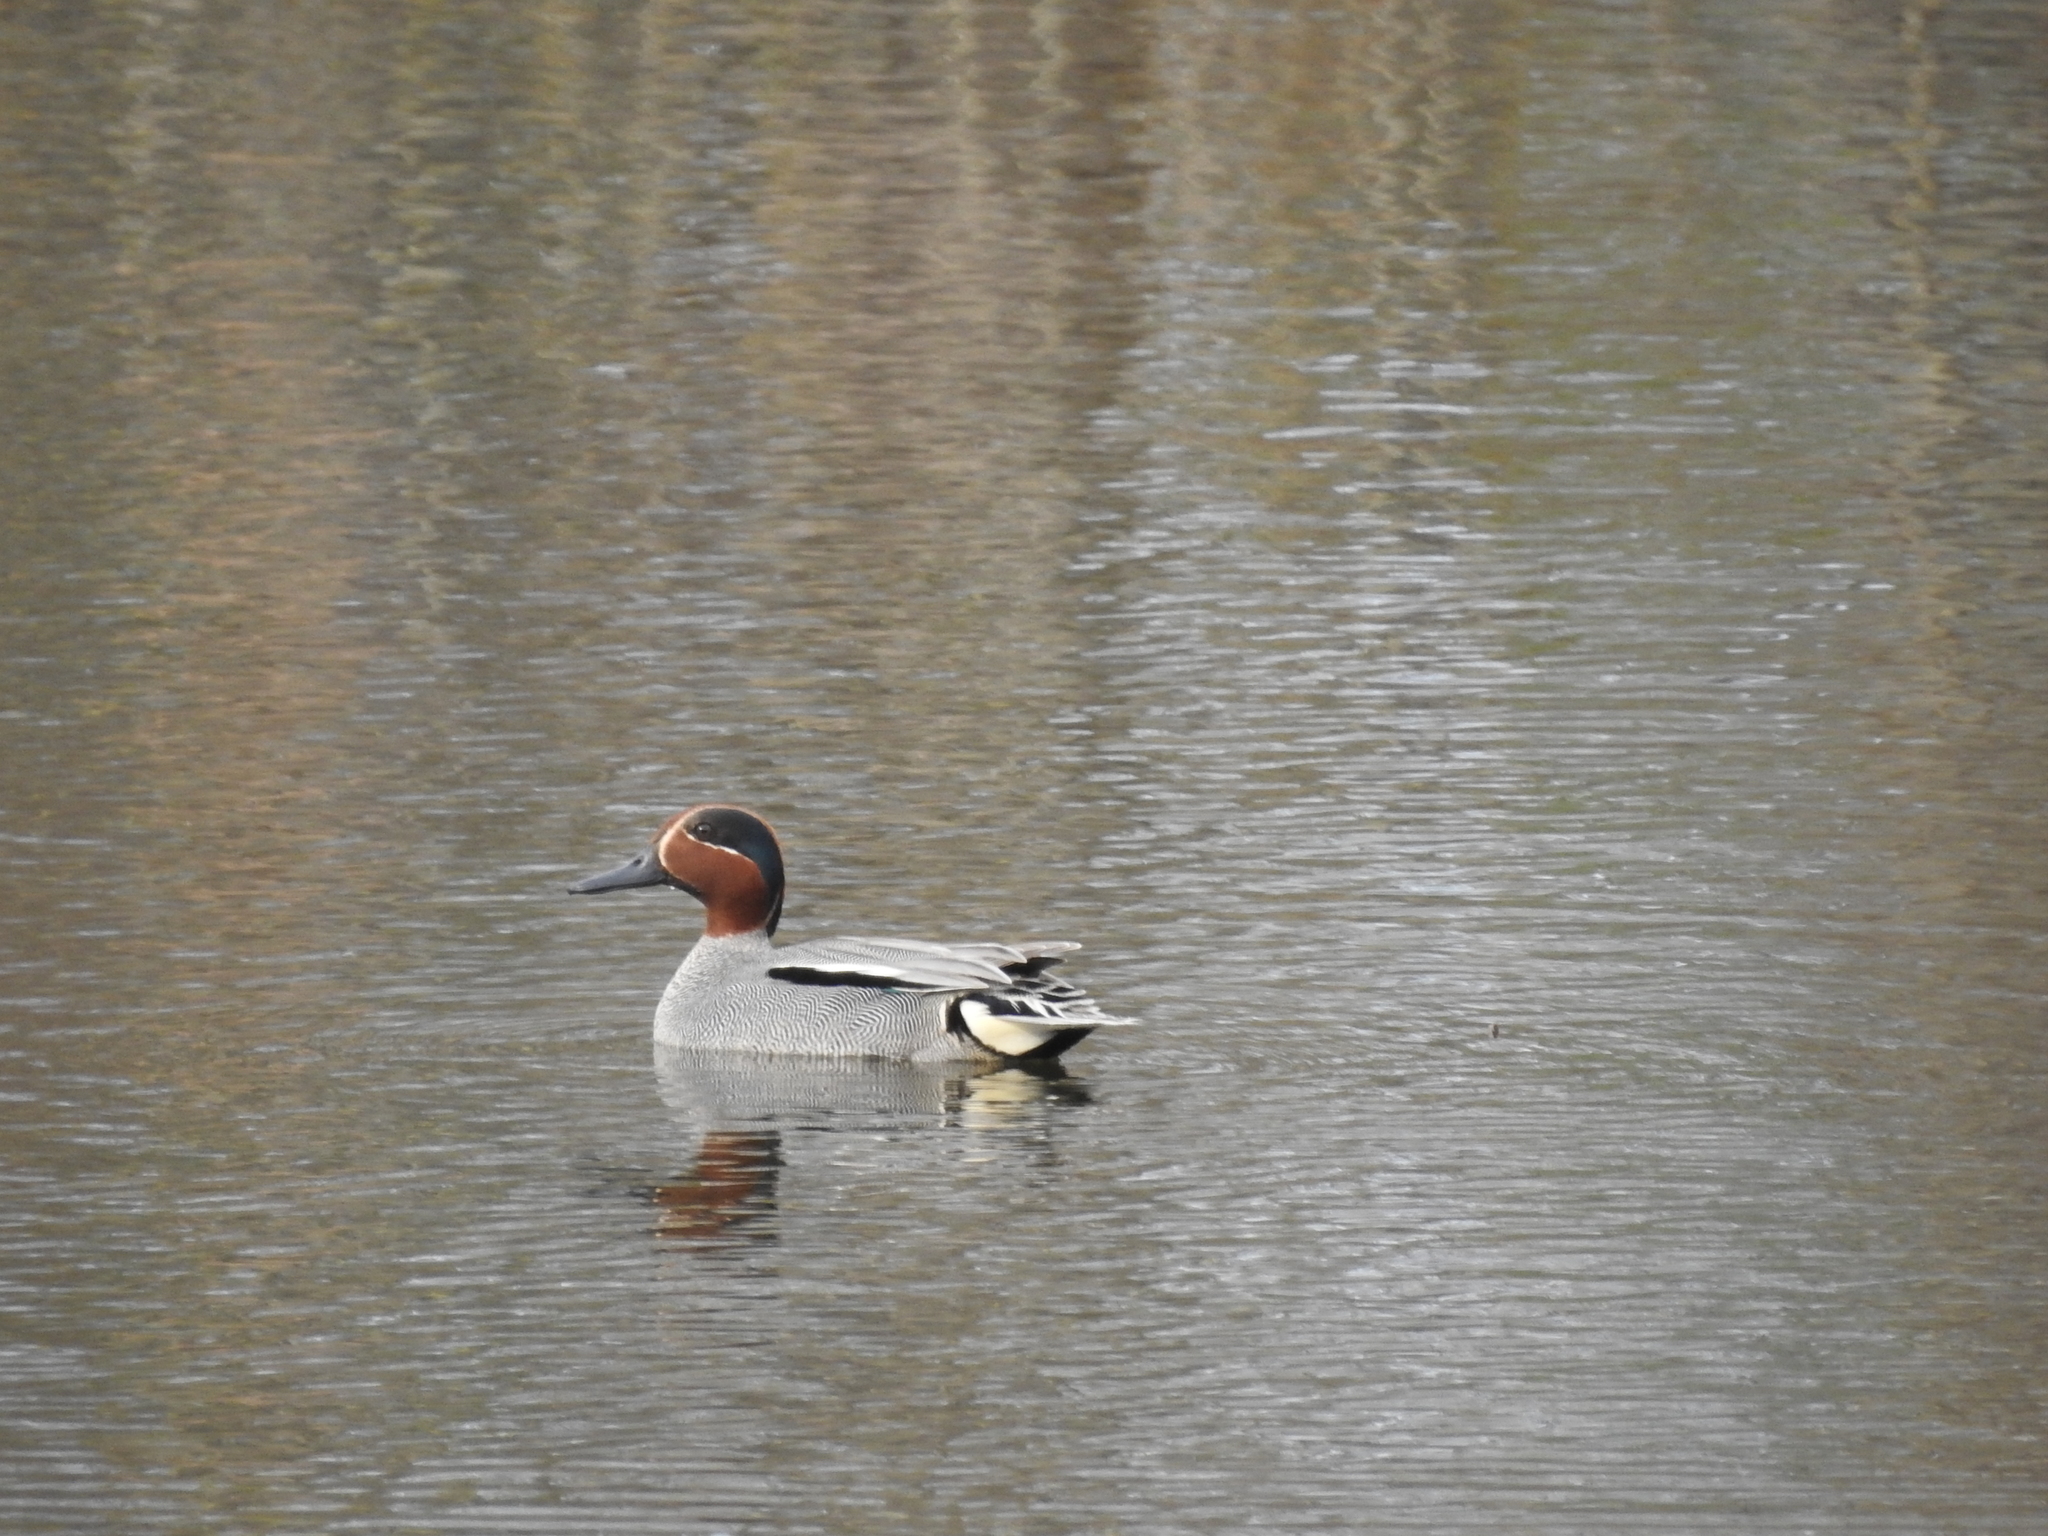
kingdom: Animalia
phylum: Chordata
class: Aves
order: Anseriformes
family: Anatidae
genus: Anas
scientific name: Anas crecca
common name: Eurasian teal
